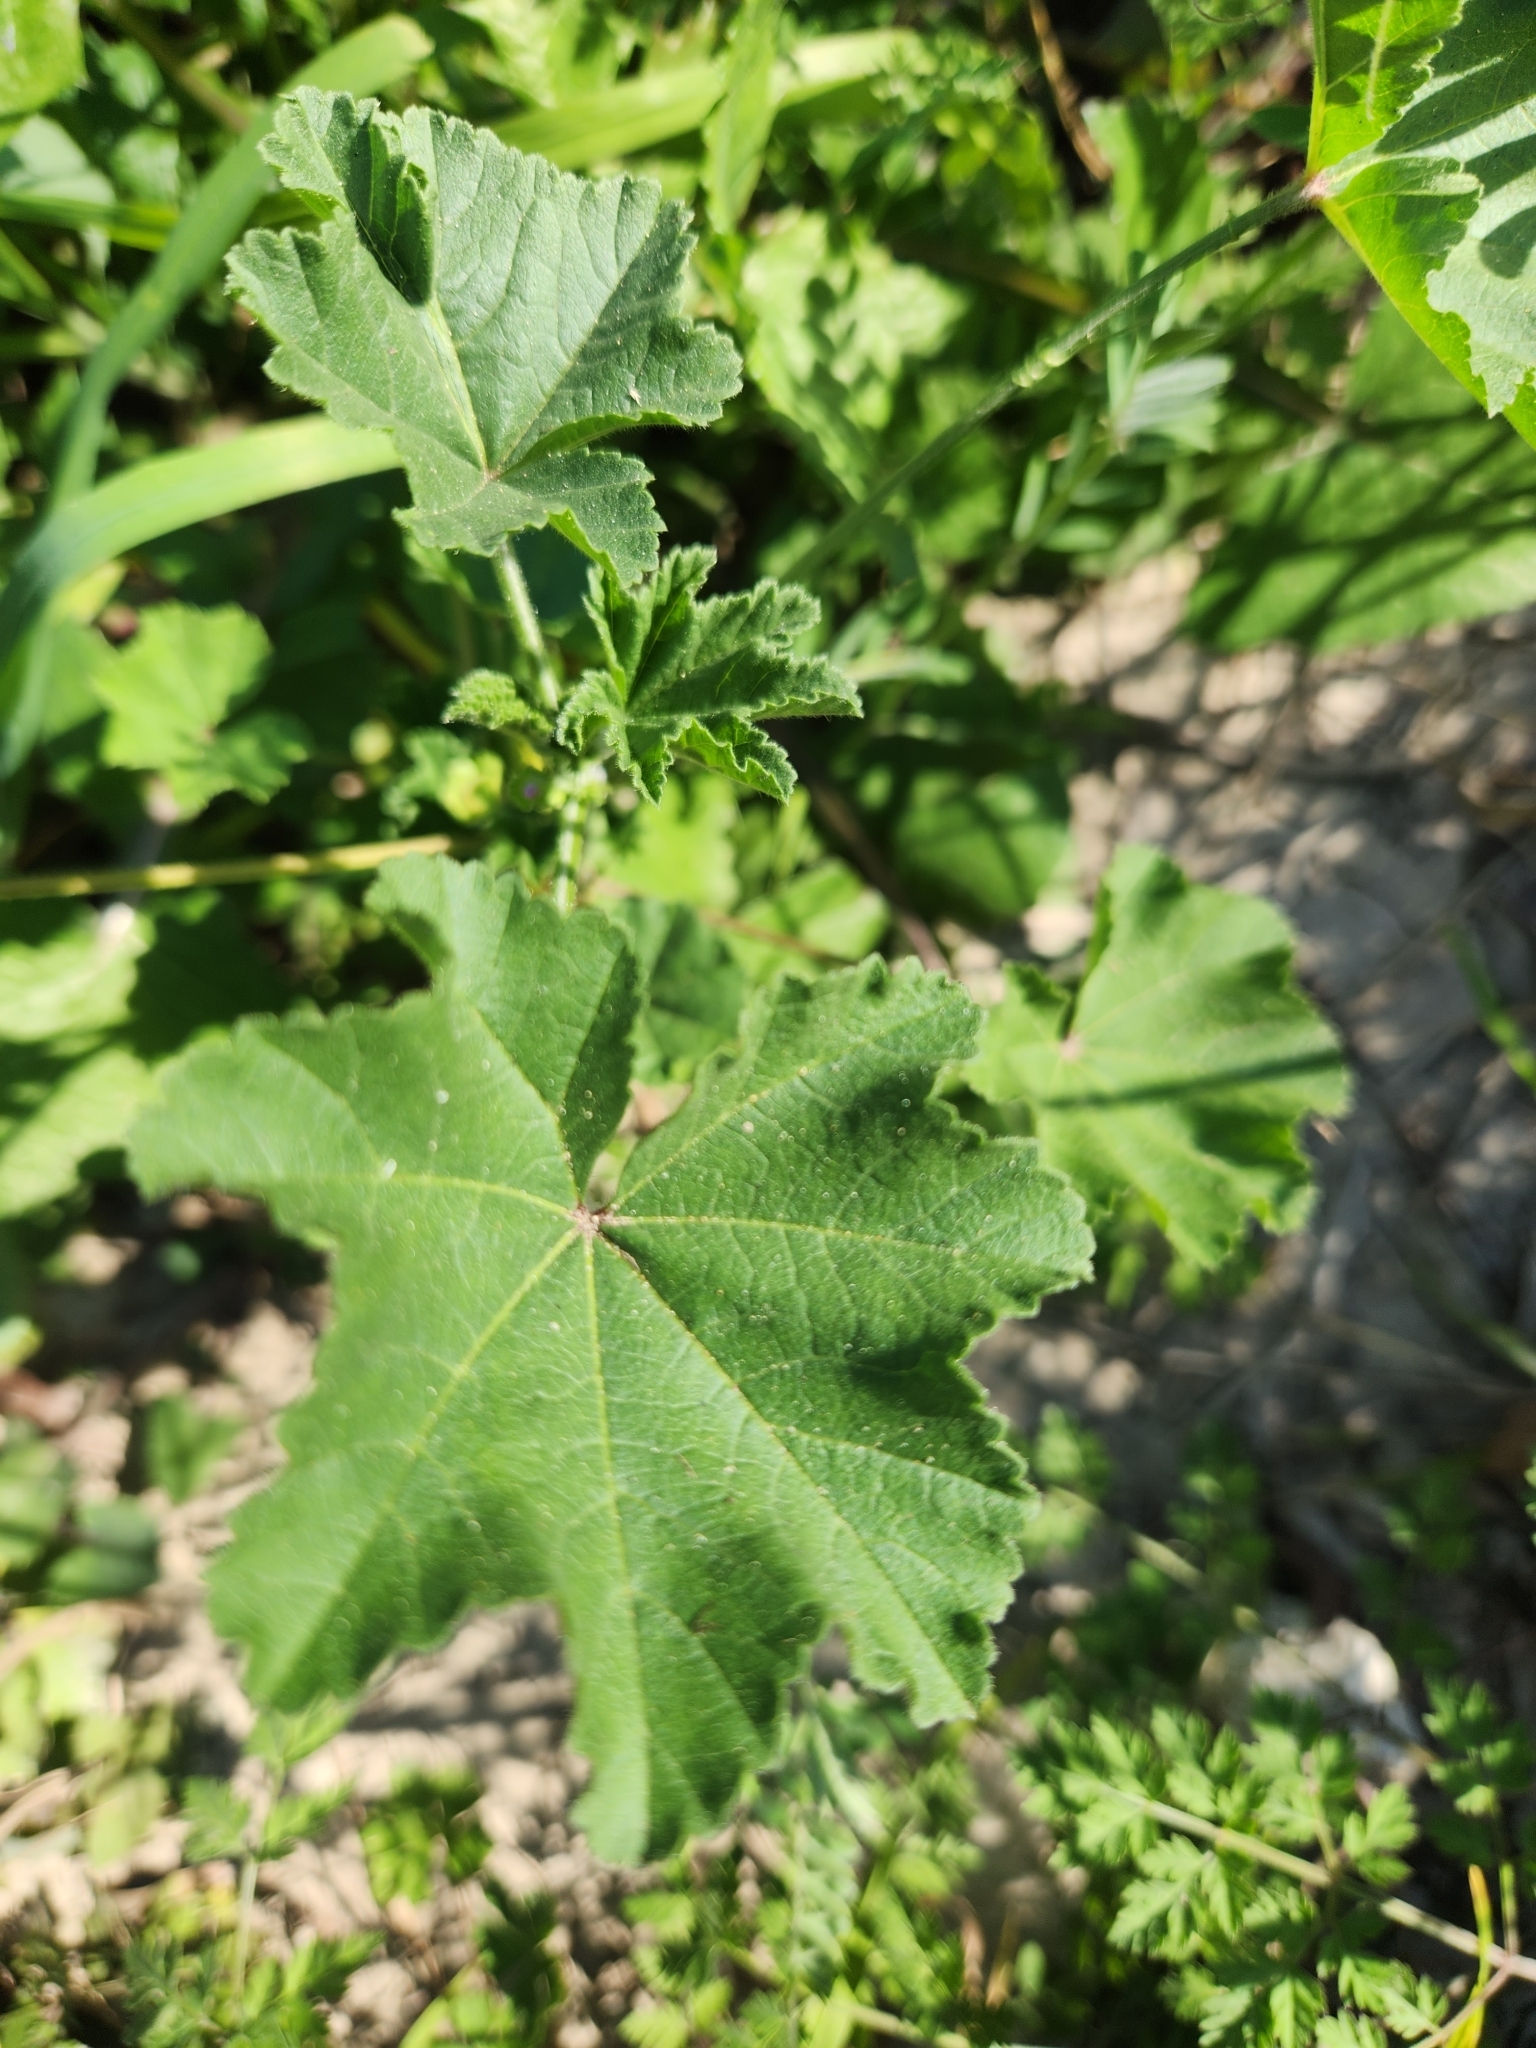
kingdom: Plantae
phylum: Tracheophyta
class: Magnoliopsida
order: Malvales
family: Malvaceae
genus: Malva
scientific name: Malva parviflora
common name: Least mallow
